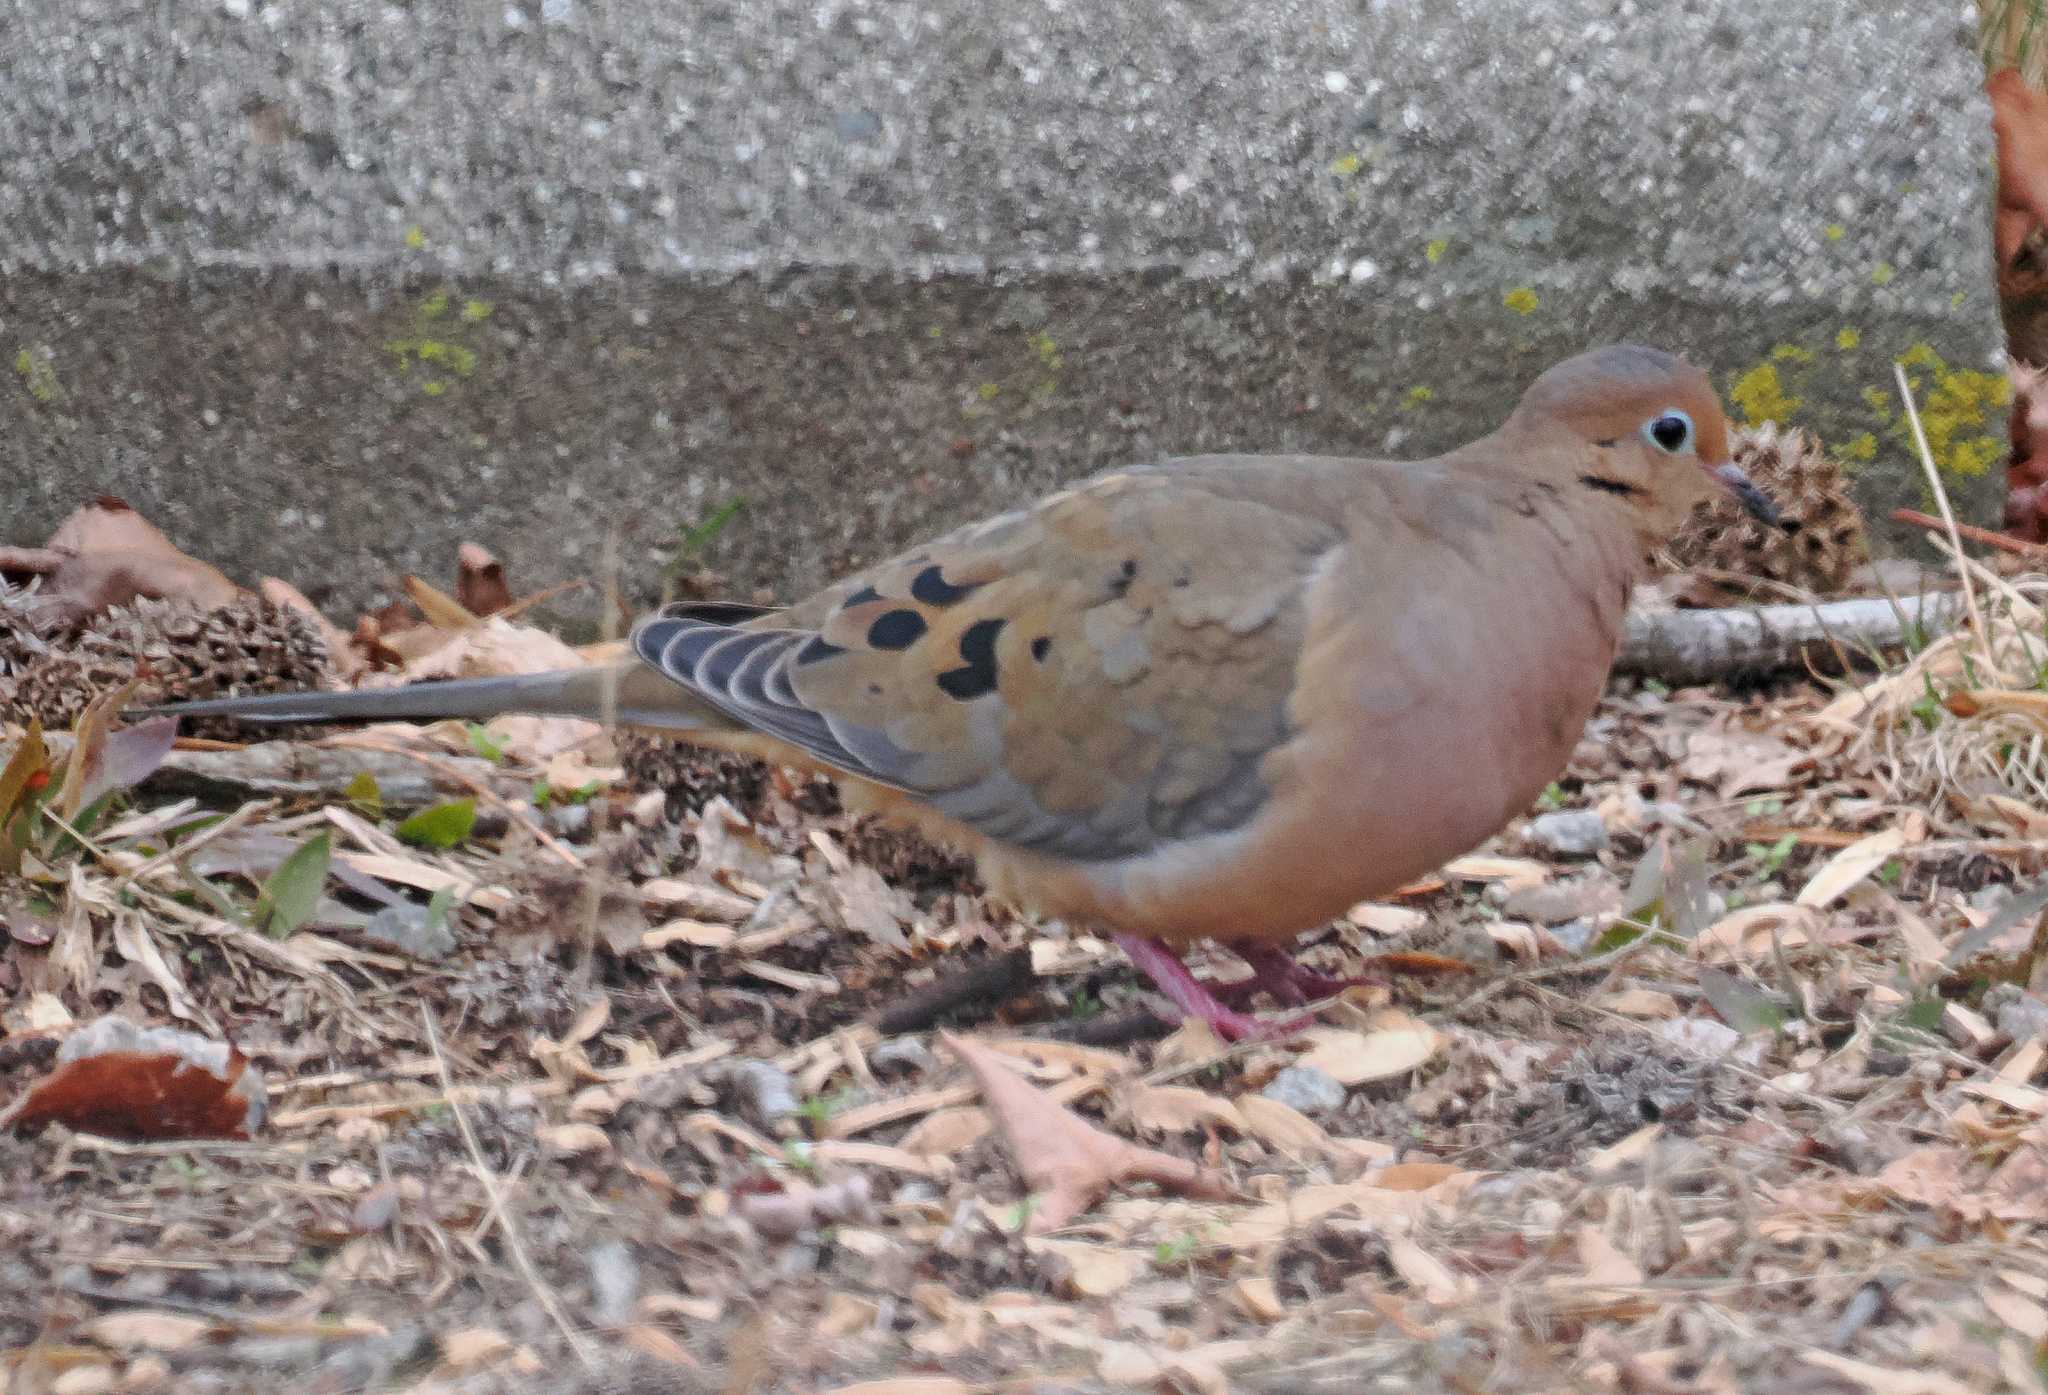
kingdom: Animalia
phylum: Chordata
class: Aves
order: Columbiformes
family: Columbidae
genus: Zenaida
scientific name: Zenaida macroura
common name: Mourning dove
